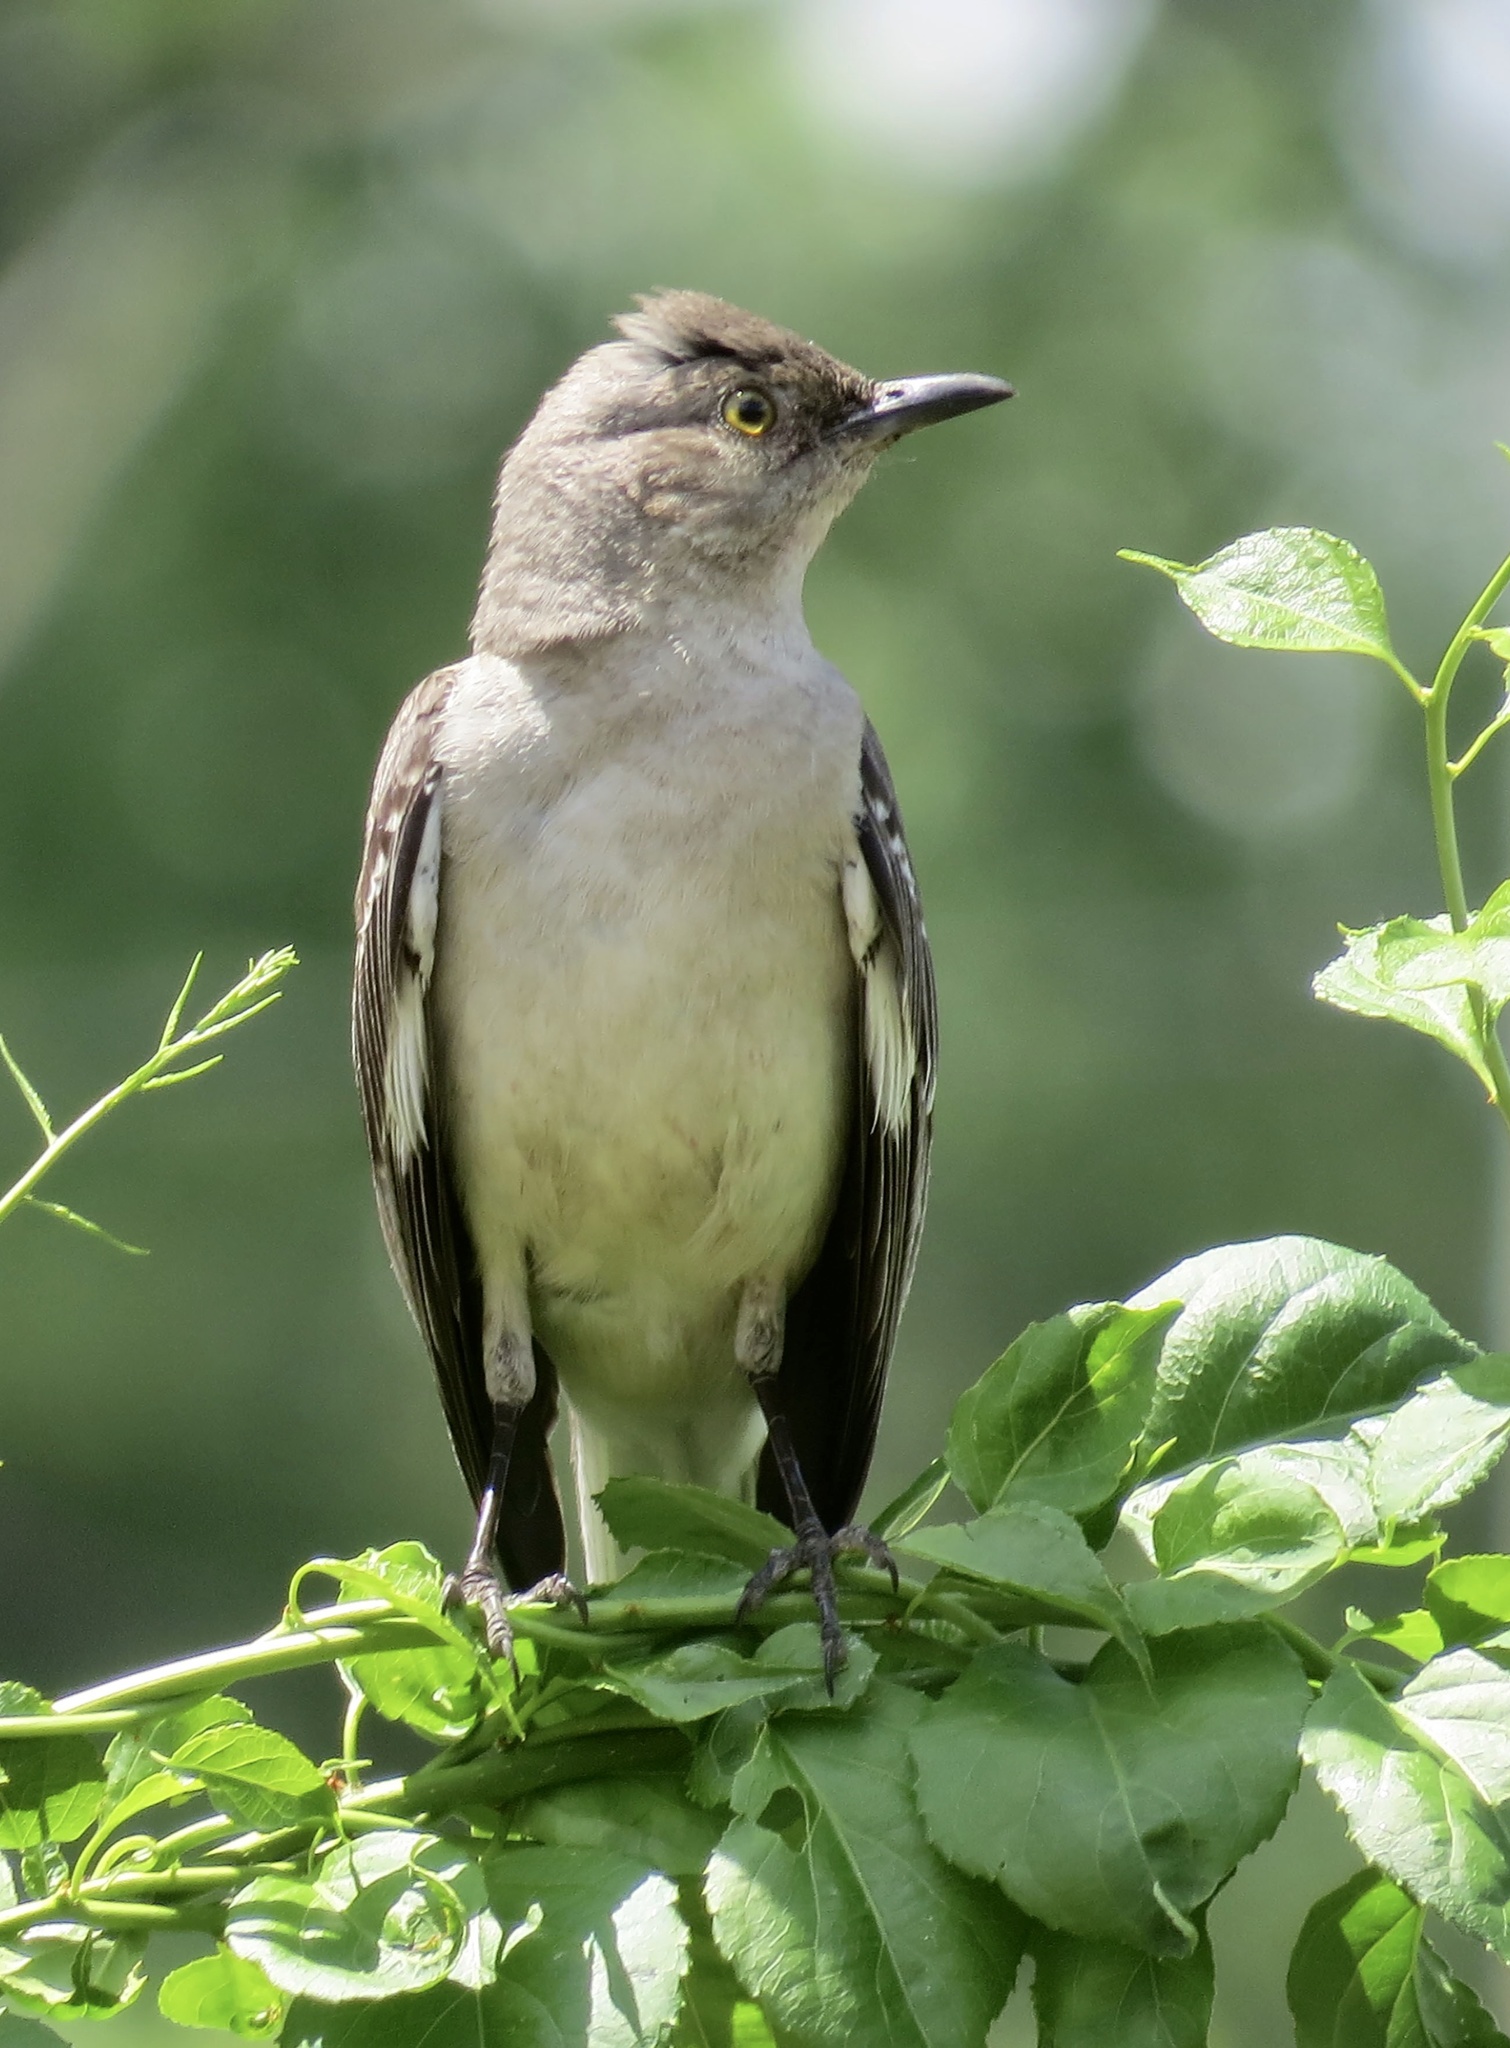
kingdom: Animalia
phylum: Chordata
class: Aves
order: Passeriformes
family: Mimidae
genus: Mimus
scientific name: Mimus polyglottos
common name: Northern mockingbird
